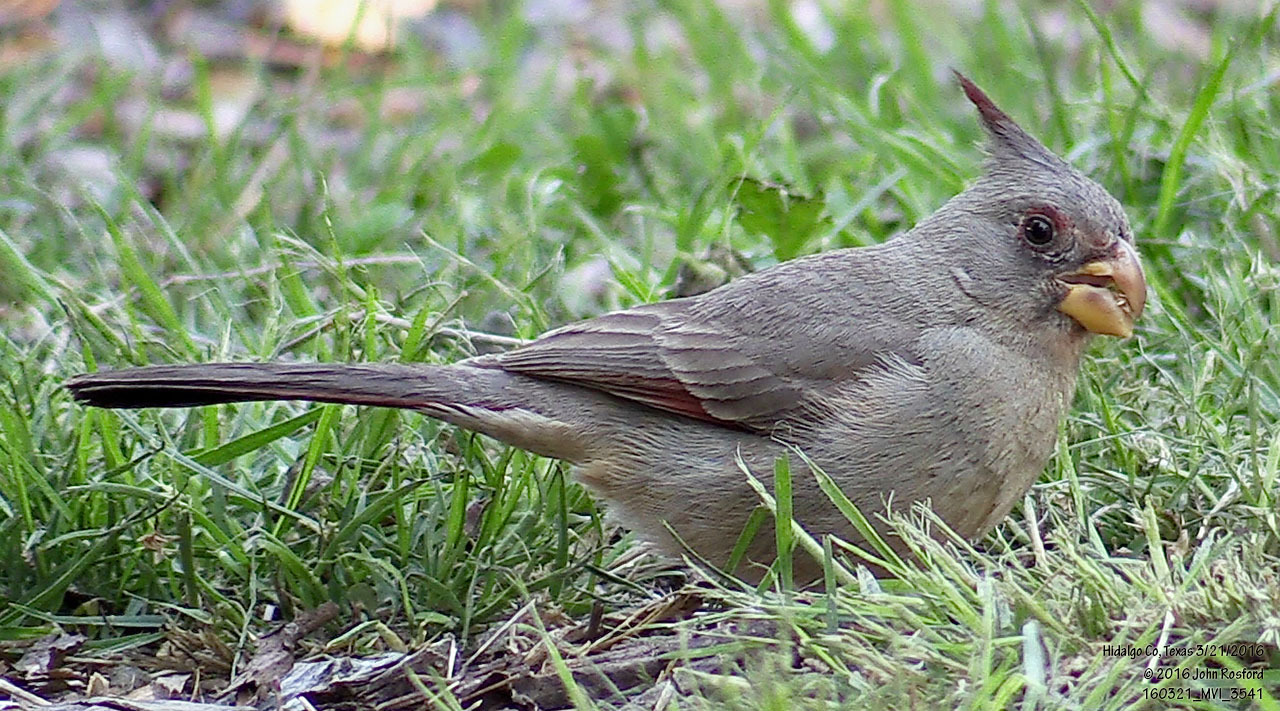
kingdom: Animalia
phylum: Chordata
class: Aves
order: Passeriformes
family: Cardinalidae
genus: Cardinalis
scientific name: Cardinalis sinuatus
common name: Pyrrhuloxia
